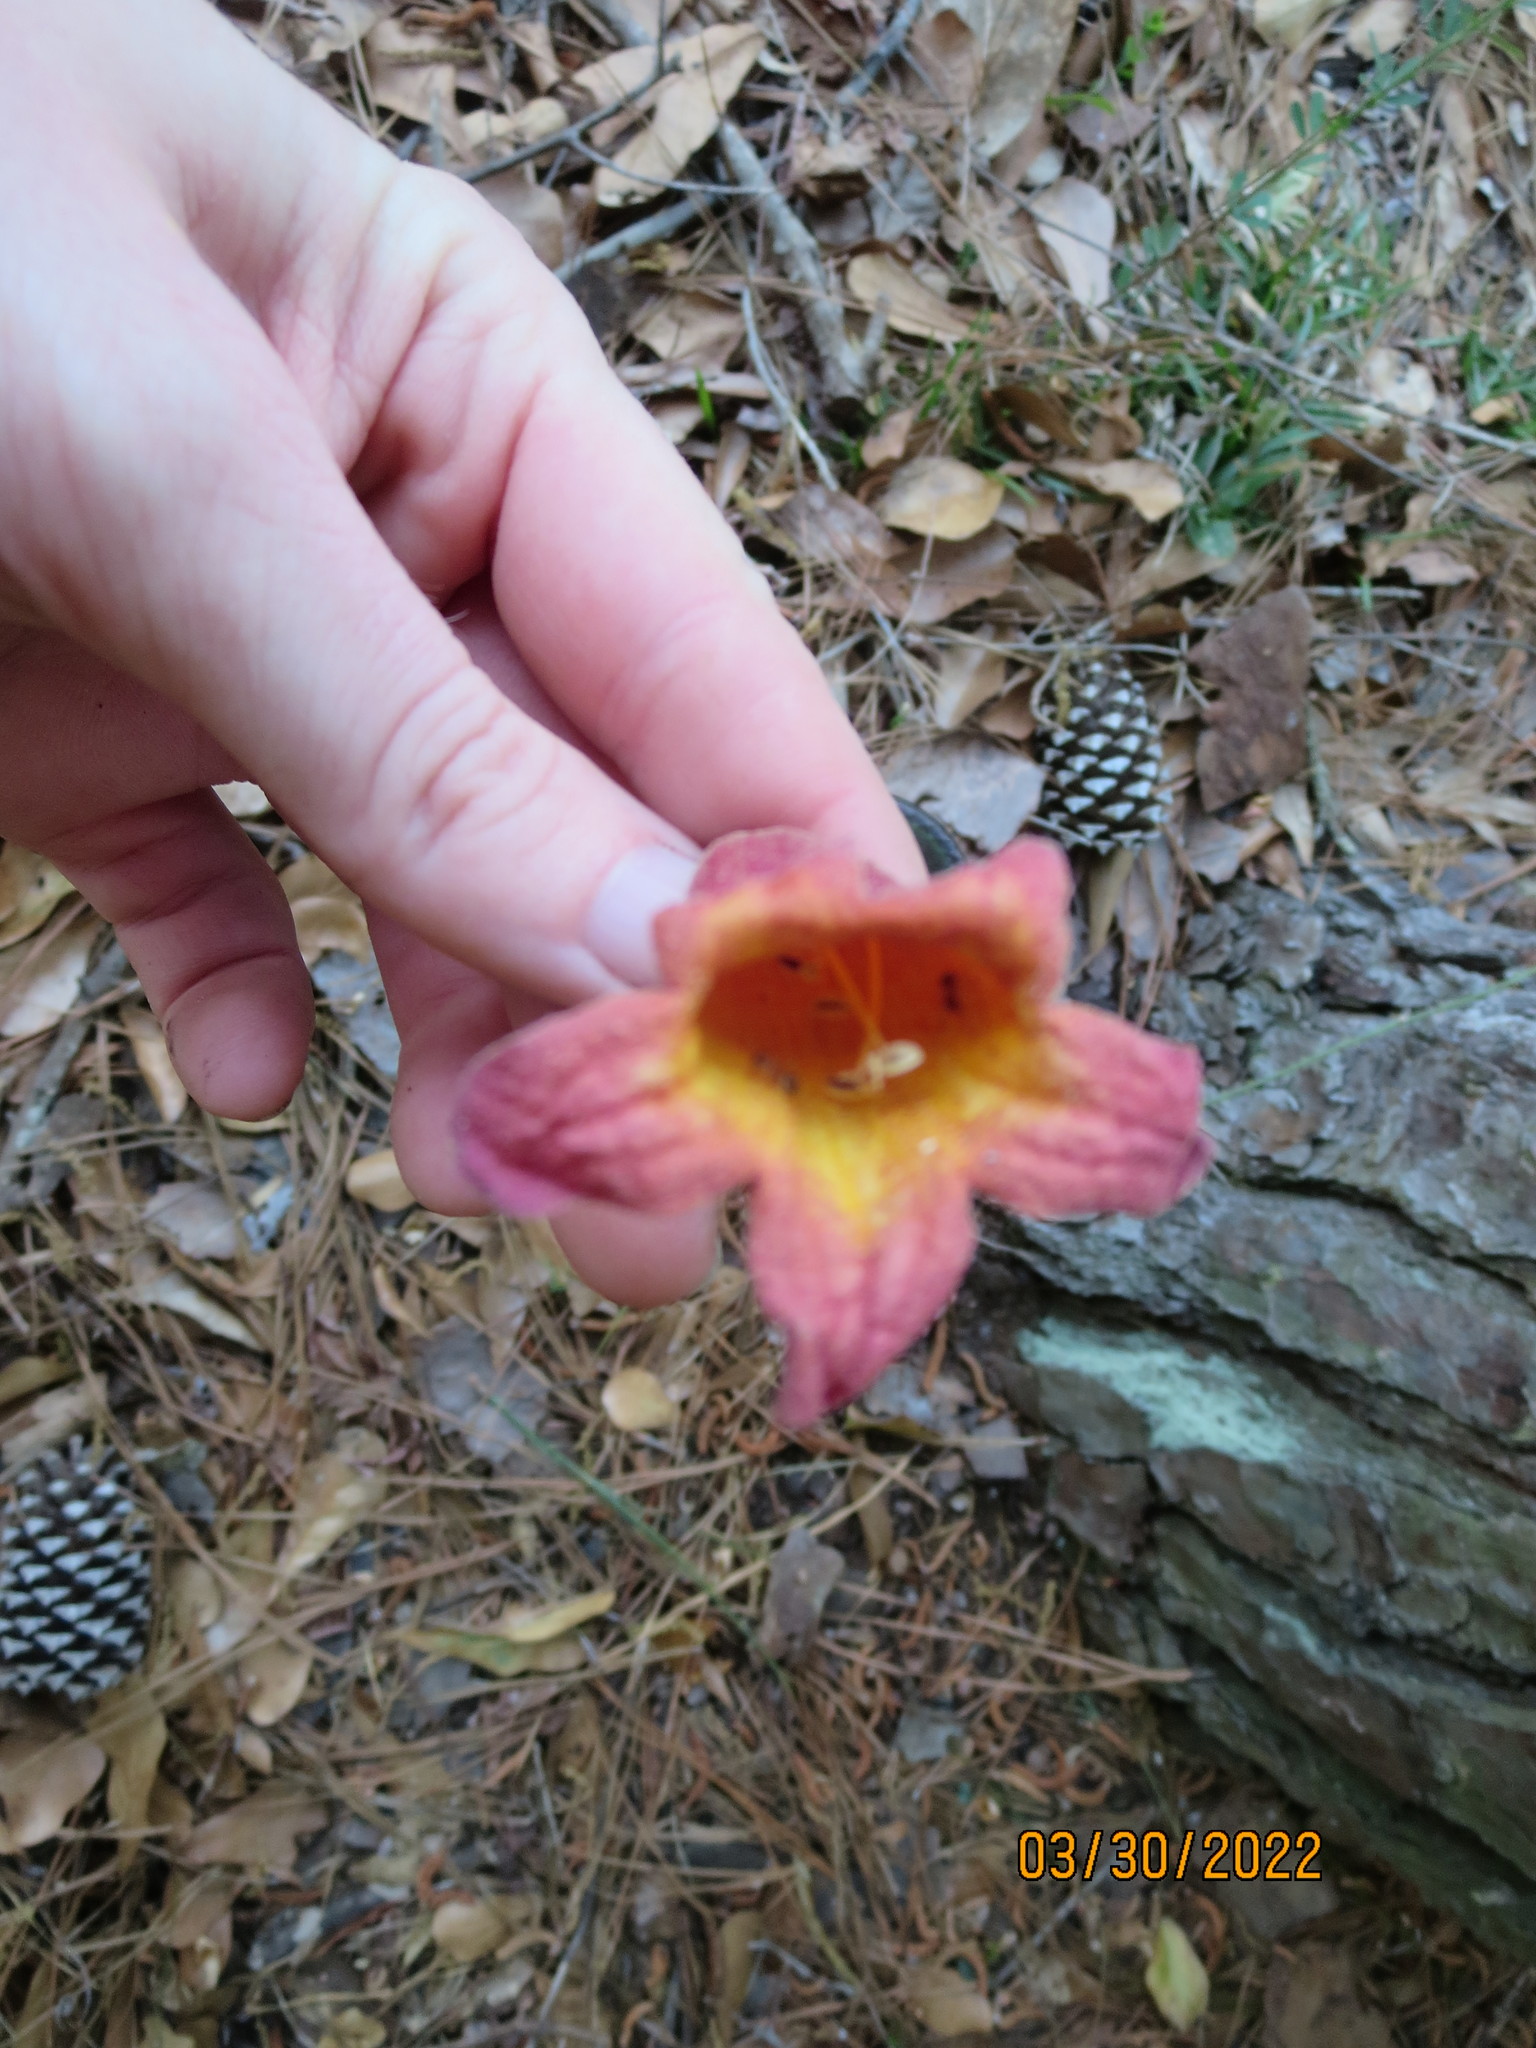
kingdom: Plantae
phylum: Tracheophyta
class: Magnoliopsida
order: Lamiales
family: Bignoniaceae
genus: Bignonia
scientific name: Bignonia capreolata
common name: Crossvine
